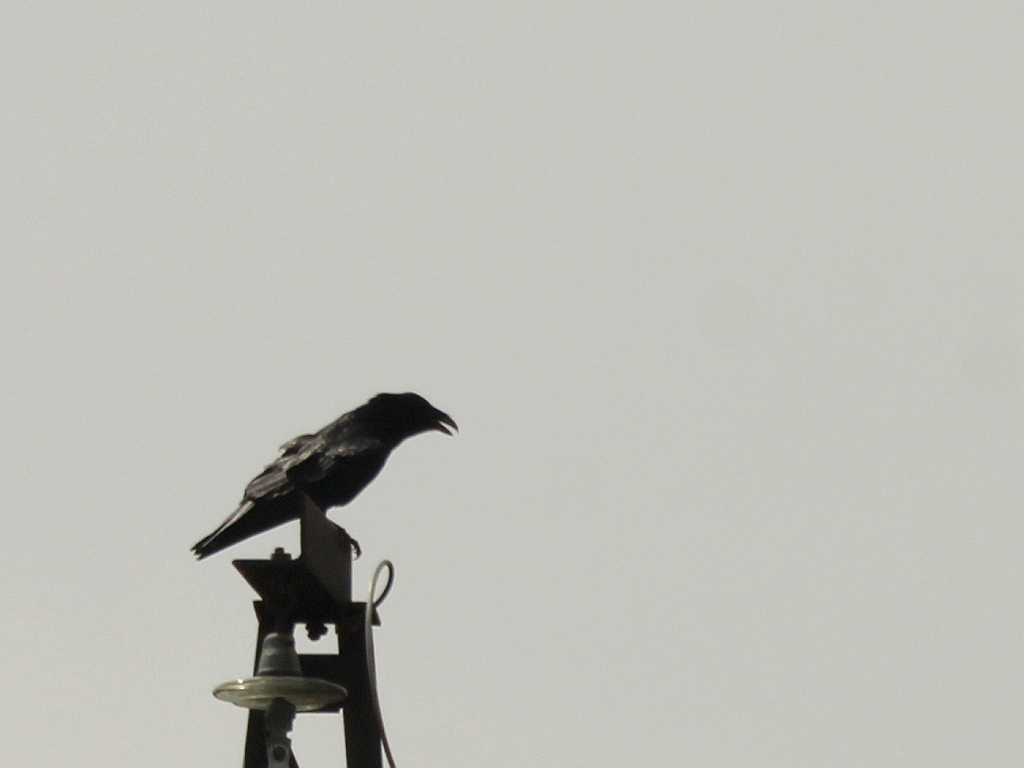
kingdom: Animalia
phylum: Chordata
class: Aves
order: Passeriformes
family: Corvidae
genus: Corvus
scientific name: Corvus corax
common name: Common raven
